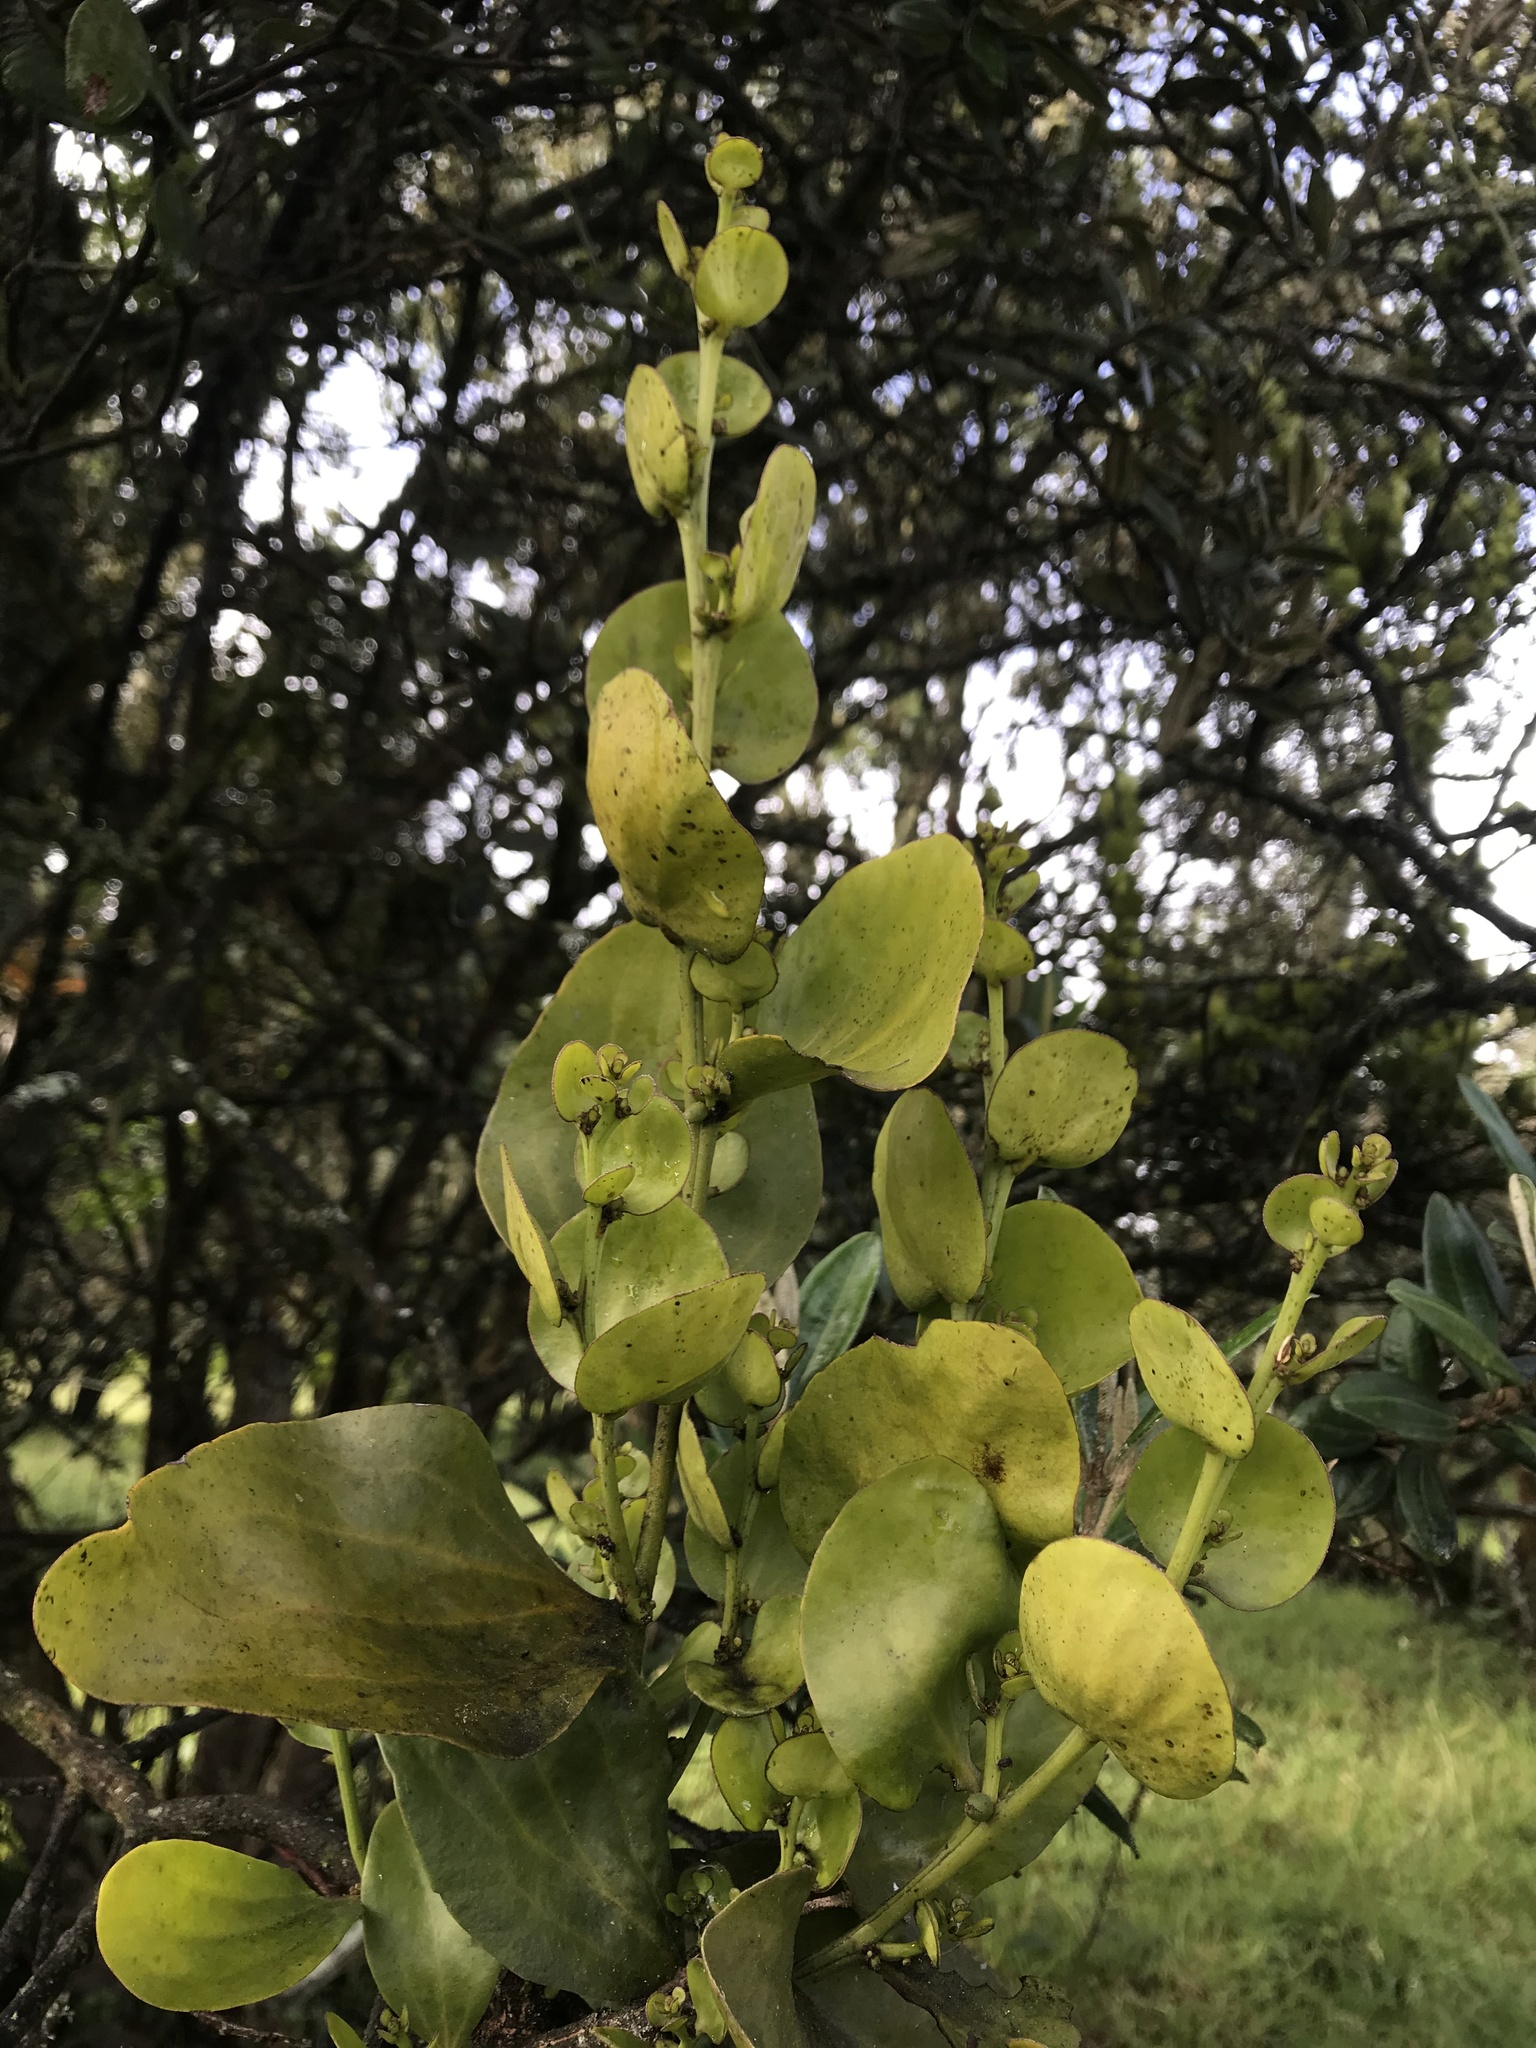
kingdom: Plantae
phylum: Tracheophyta
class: Magnoliopsida
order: Santalales
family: Santalaceae
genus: Antidaphne
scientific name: Antidaphne andina
